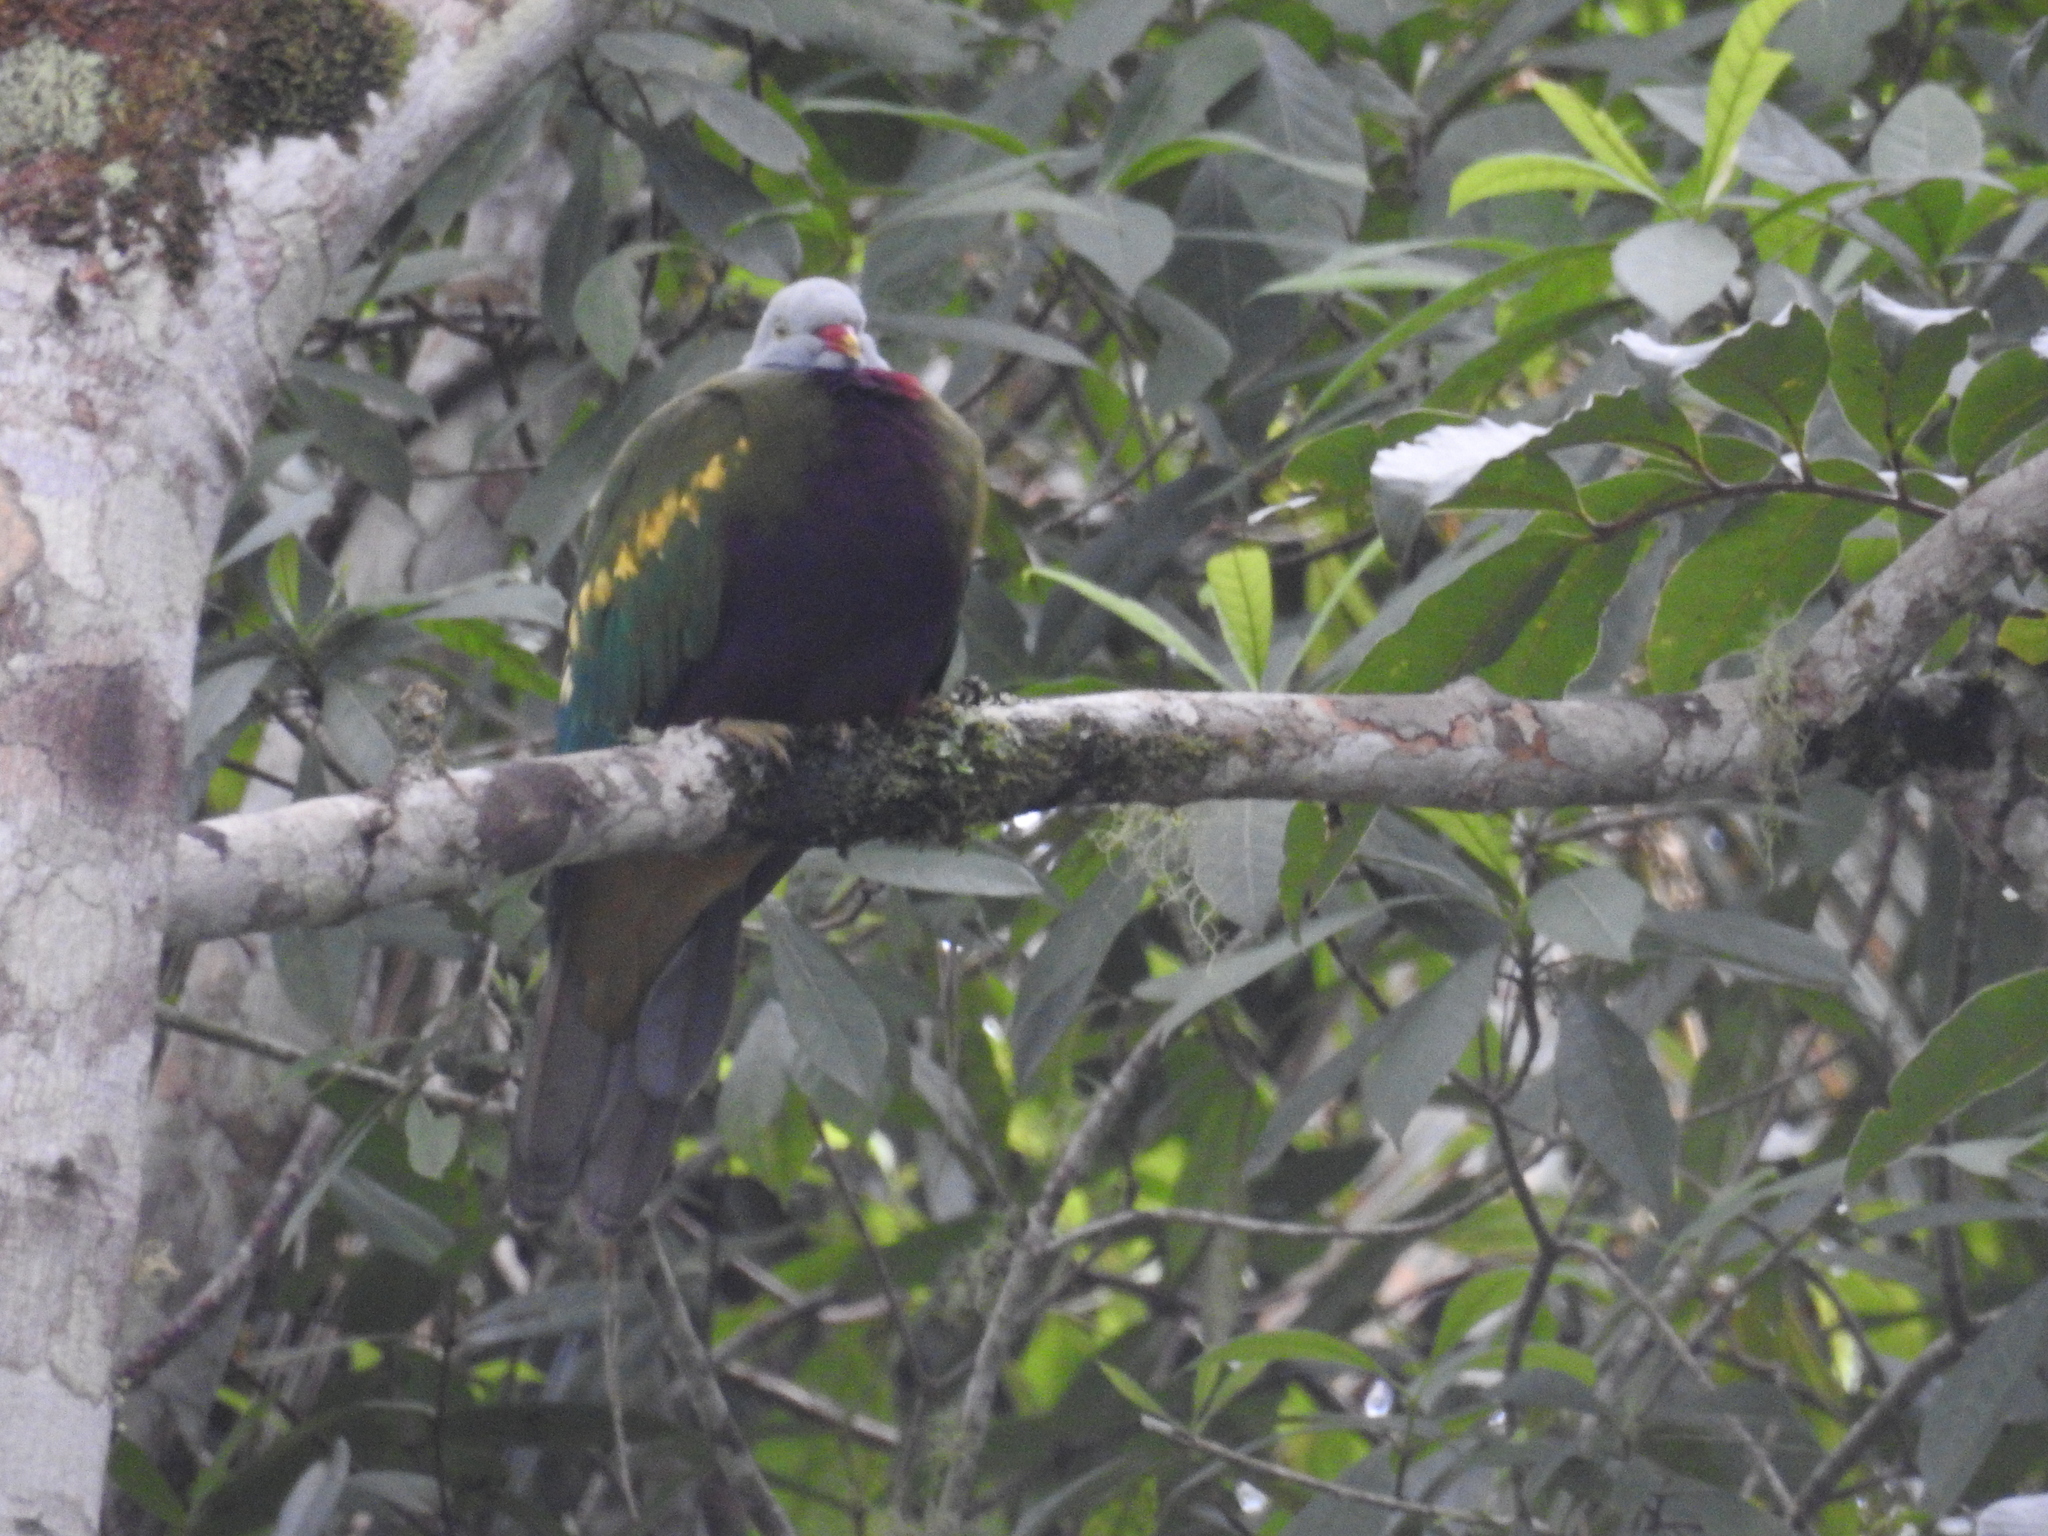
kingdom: Animalia
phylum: Chordata
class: Aves
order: Columbiformes
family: Columbidae
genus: Ptilinopus
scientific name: Ptilinopus magnificus
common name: Wompoo fruit dove
